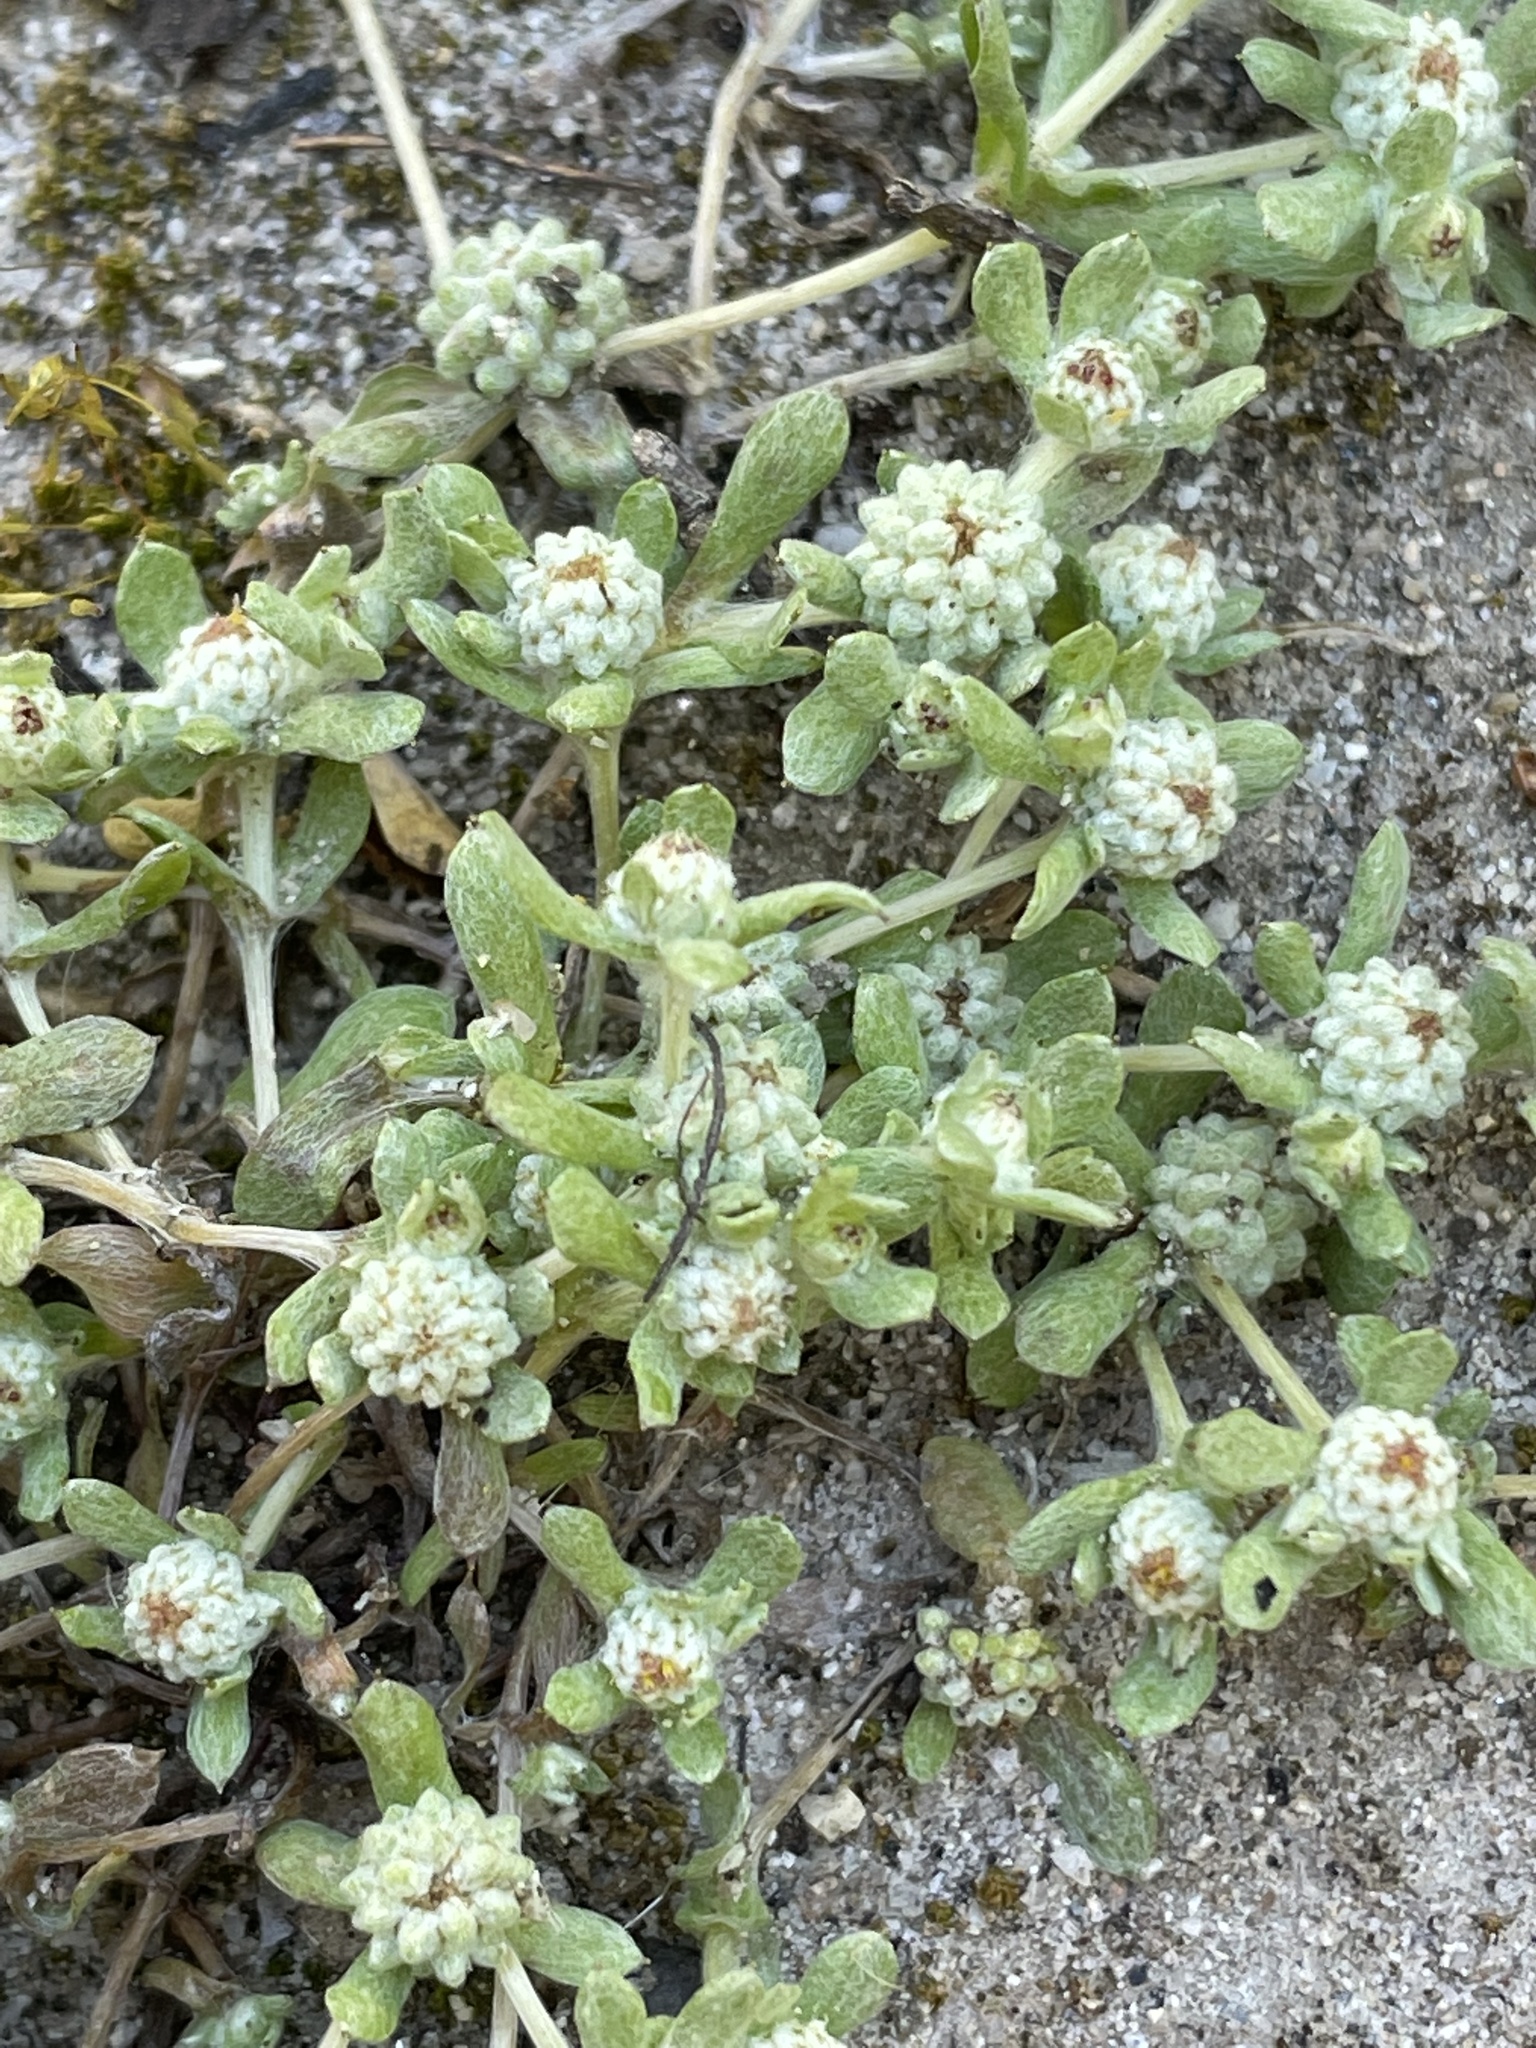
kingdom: Plantae
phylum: Tracheophyta
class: Magnoliopsida
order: Asterales
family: Asteraceae
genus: Psilocarphus
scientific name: Psilocarphus tenellus
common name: Slender woolly-marbles
